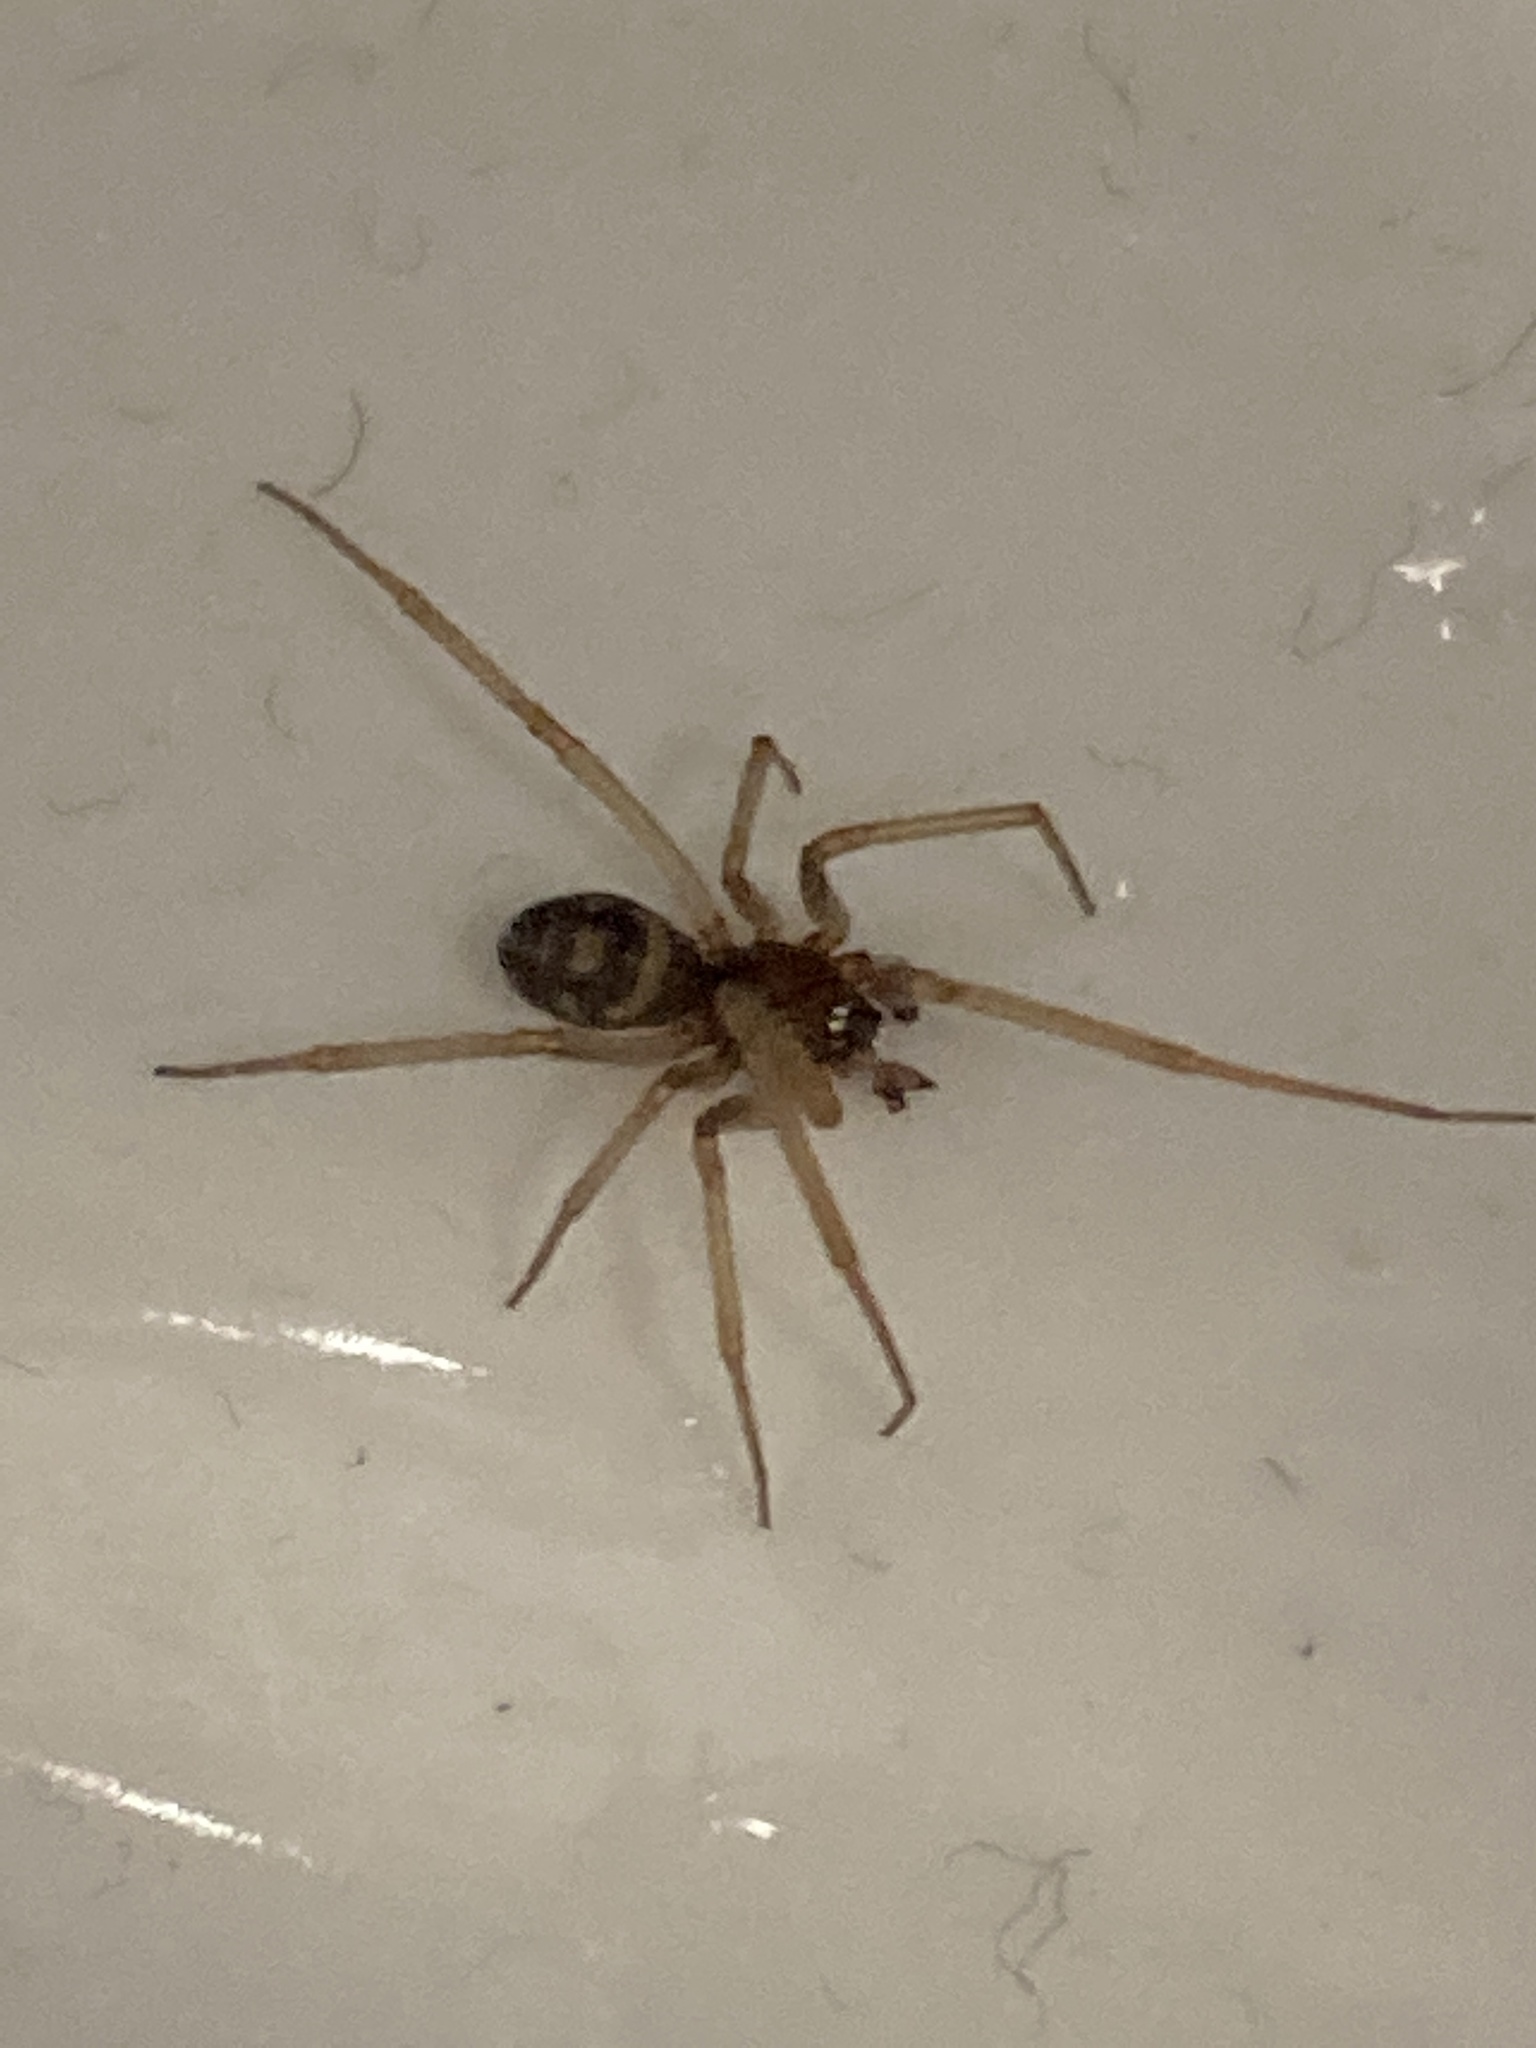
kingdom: Animalia
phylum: Arthropoda
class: Arachnida
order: Araneae
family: Theridiidae
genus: Steatoda
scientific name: Steatoda grossa
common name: False black widow
